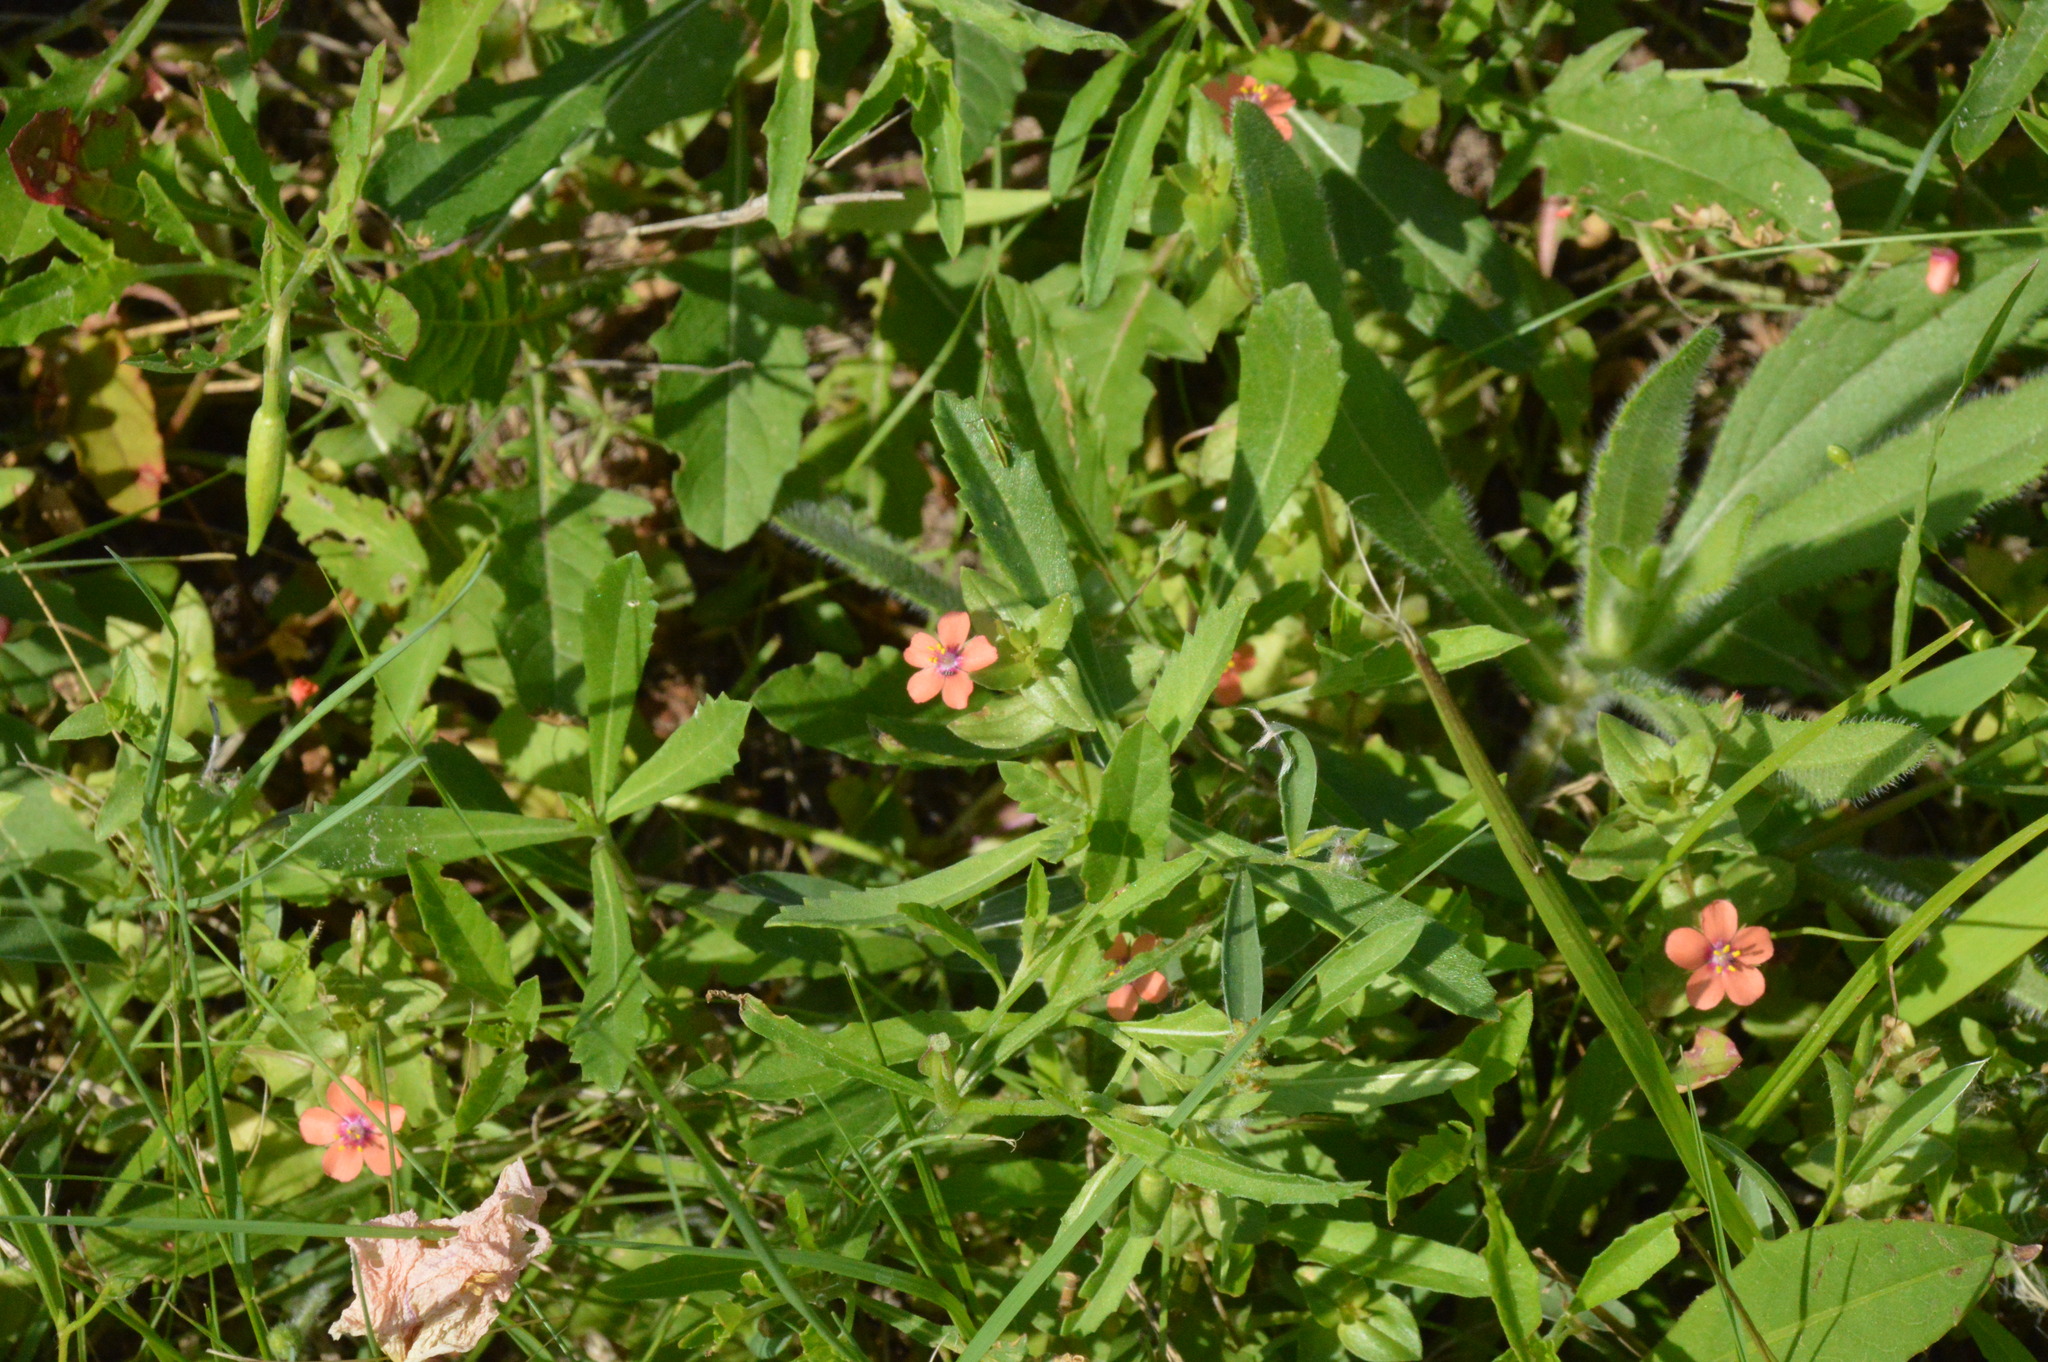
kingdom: Plantae
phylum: Tracheophyta
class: Magnoliopsida
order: Ericales
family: Primulaceae
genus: Lysimachia
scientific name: Lysimachia arvensis
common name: Scarlet pimpernel
